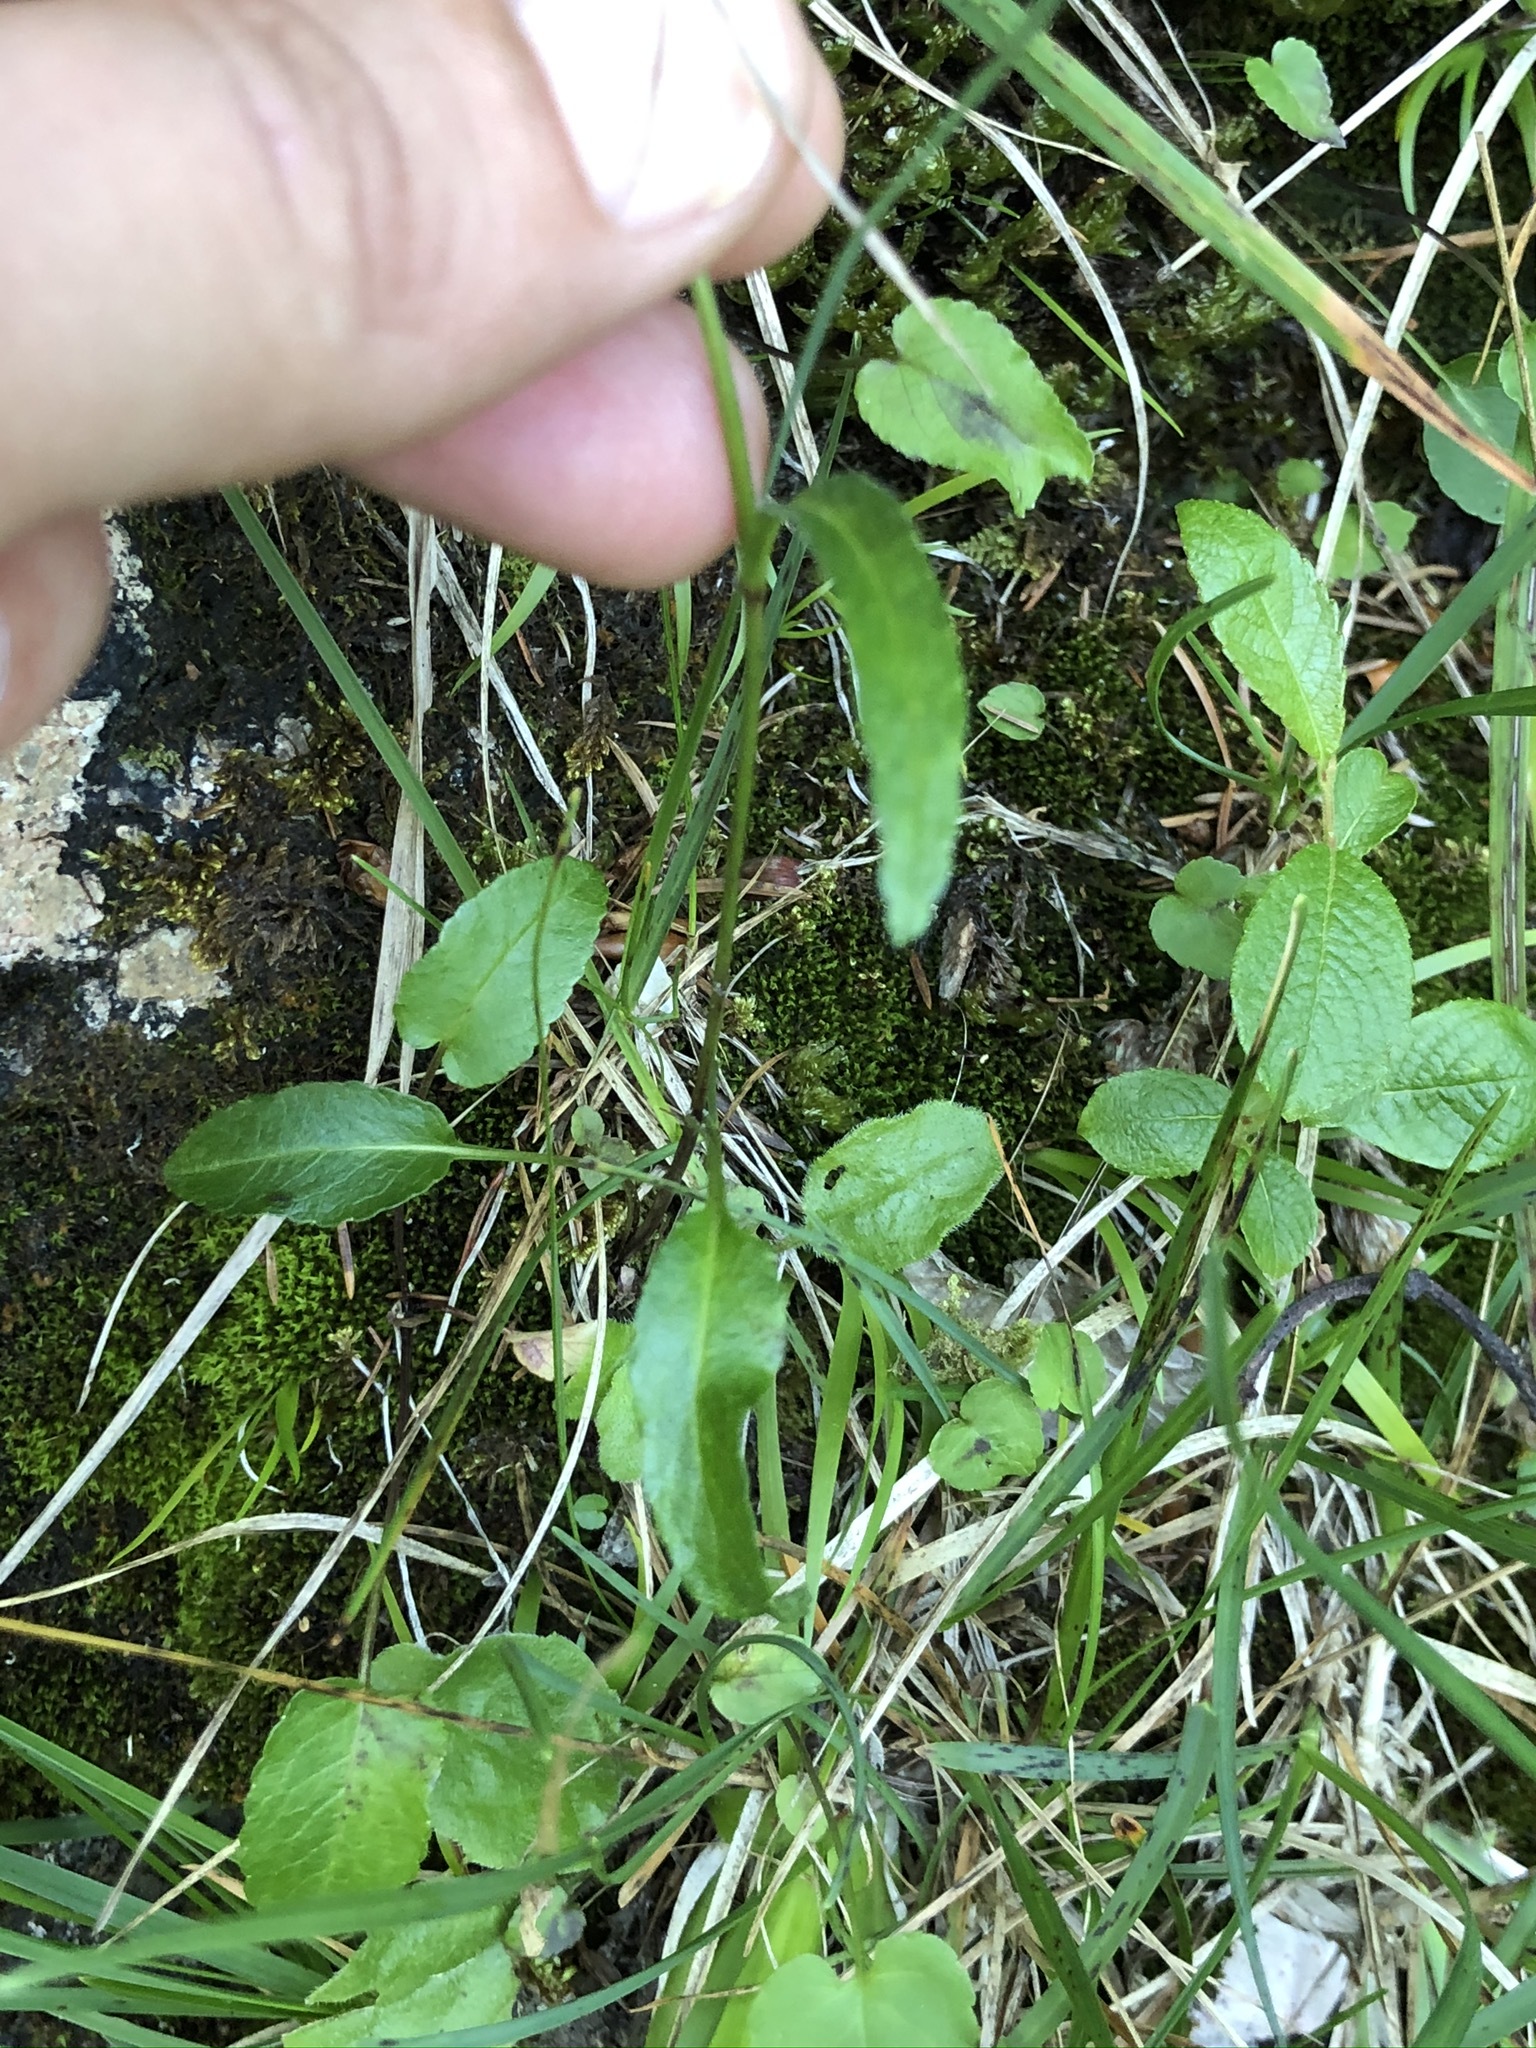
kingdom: Plantae
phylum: Tracheophyta
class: Magnoliopsida
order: Asterales
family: Campanulaceae
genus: Phyteuma
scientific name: Phyteuma orbiculare
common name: Round-headed rampion
